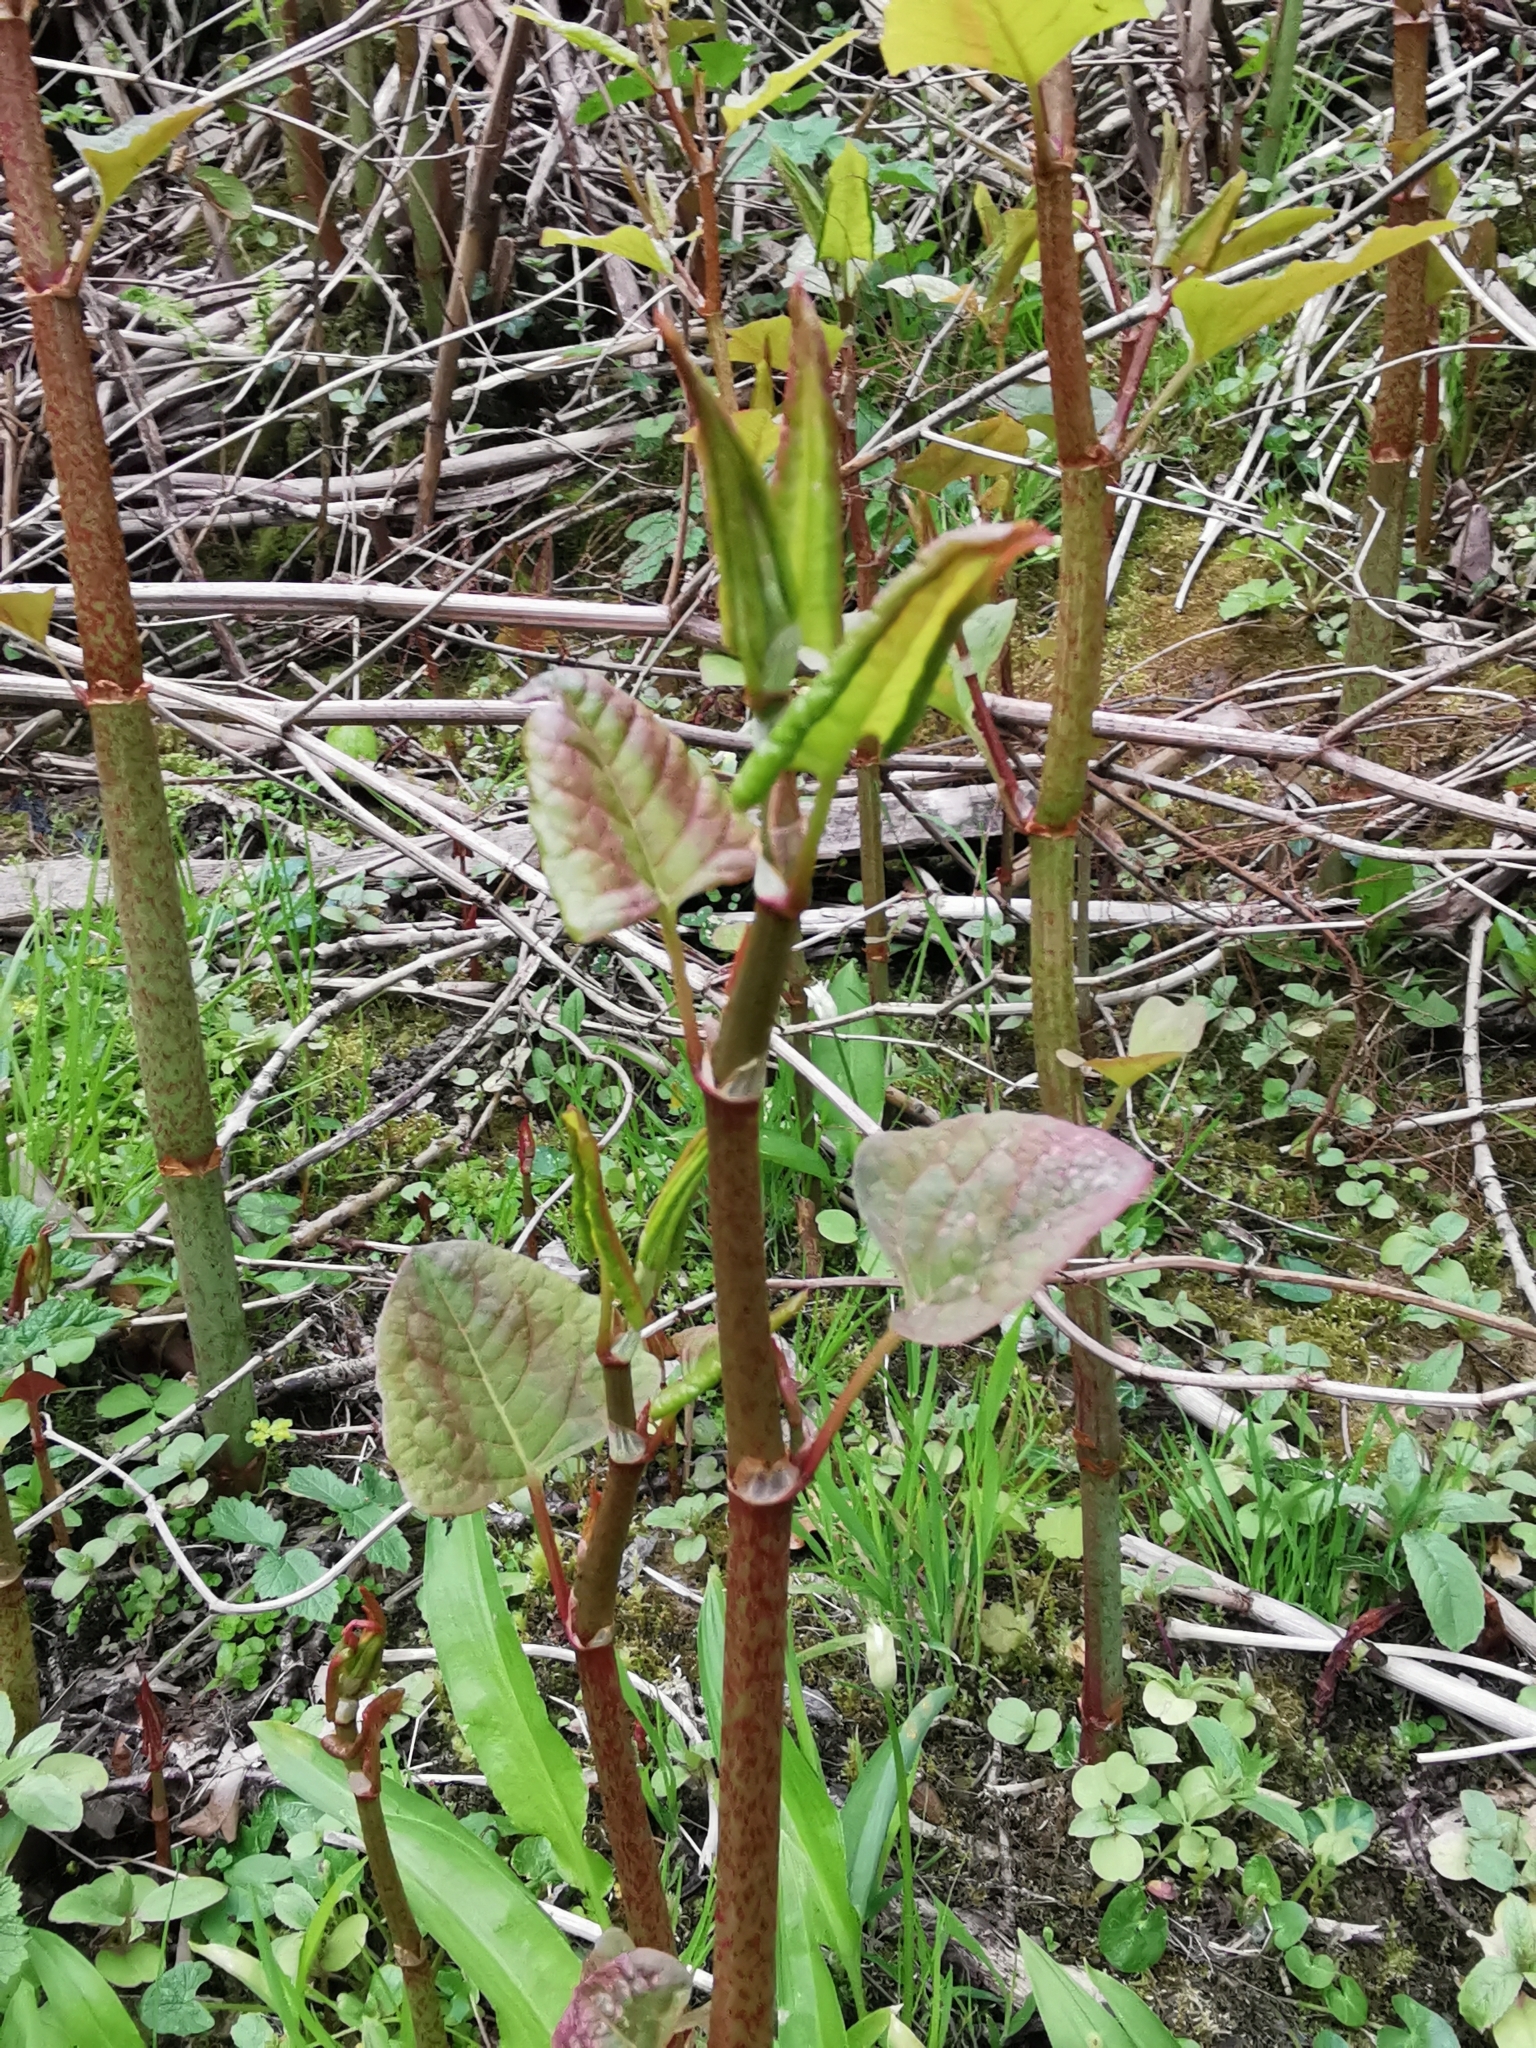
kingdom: Plantae
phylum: Tracheophyta
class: Magnoliopsida
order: Caryophyllales
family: Polygonaceae
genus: Reynoutria
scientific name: Reynoutria japonica
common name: Japanese knotweed
